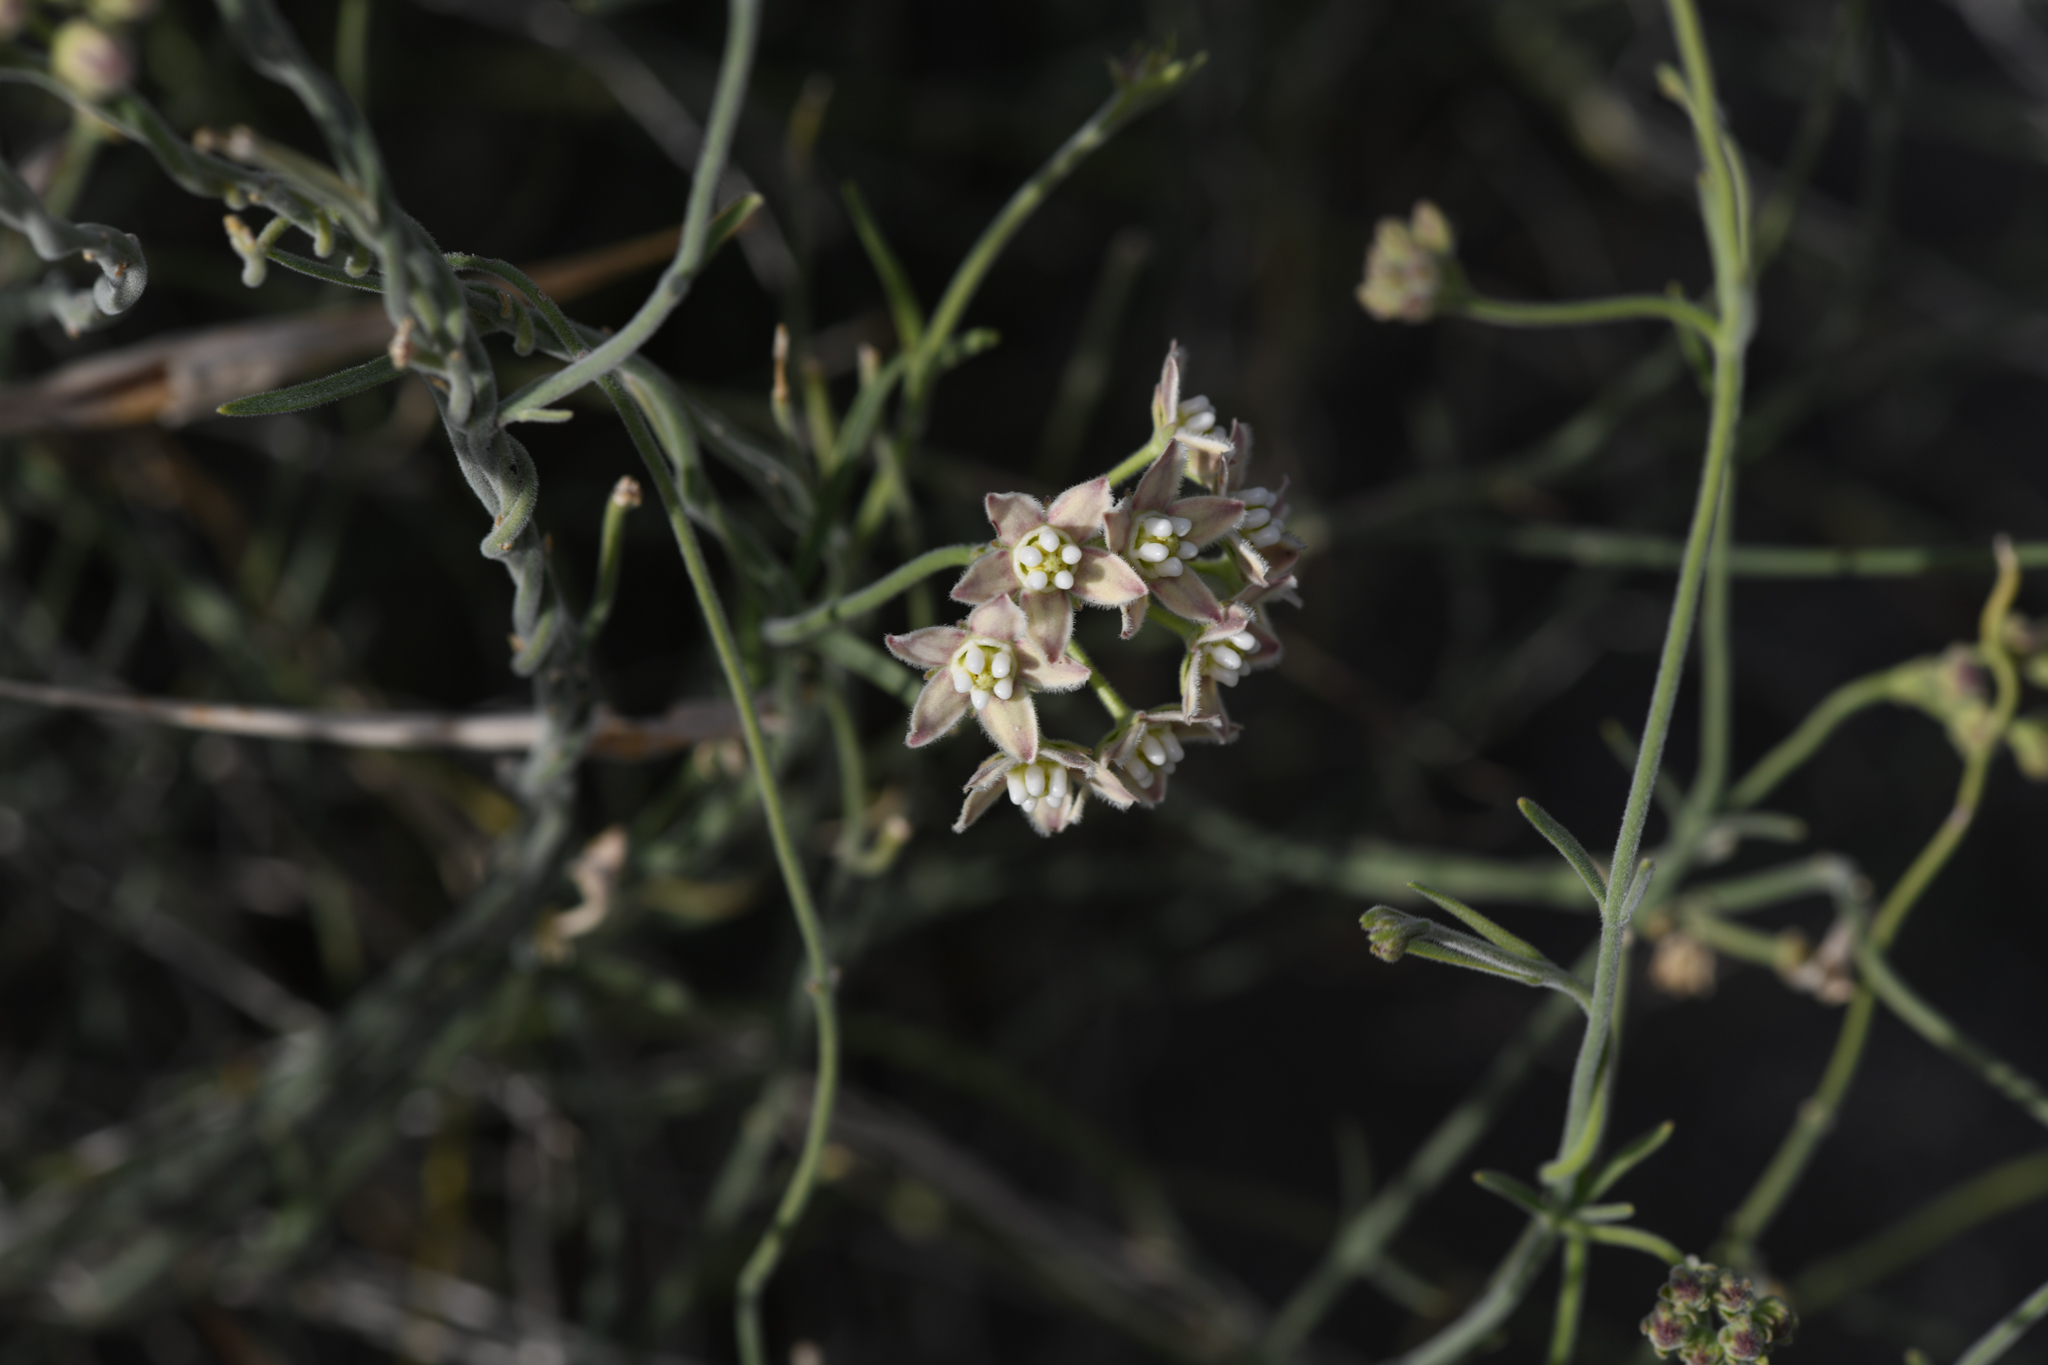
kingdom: Plantae
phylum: Tracheophyta
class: Magnoliopsida
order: Gentianales
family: Apocynaceae
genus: Funastrum
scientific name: Funastrum hirtellum
